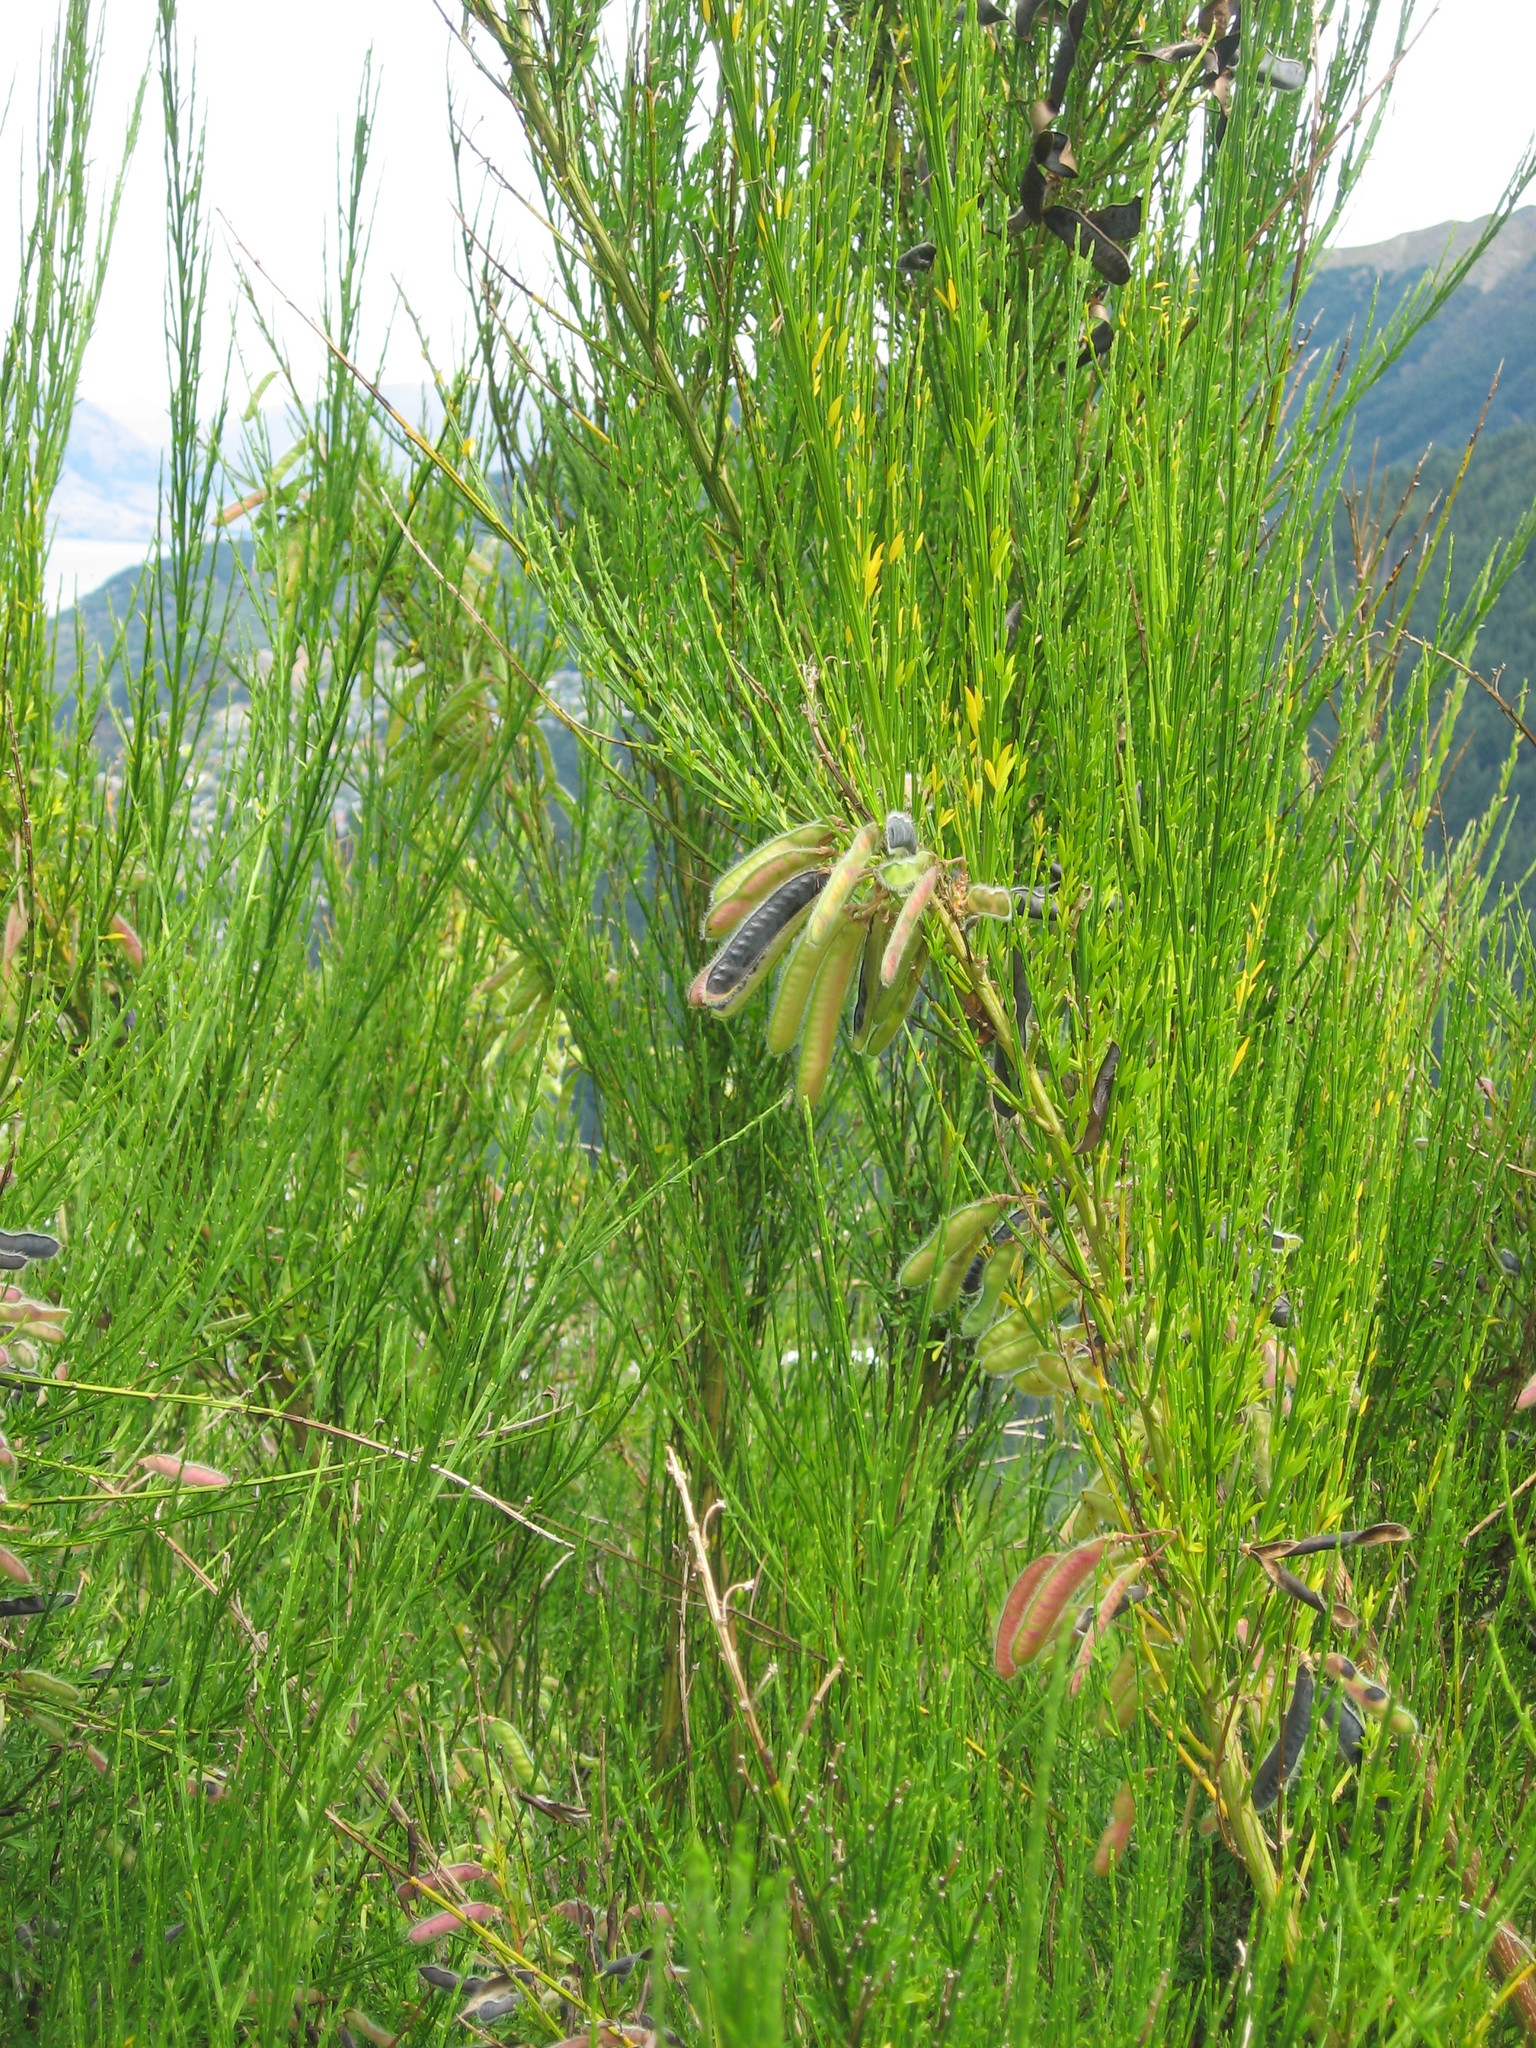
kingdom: Plantae
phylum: Tracheophyta
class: Magnoliopsida
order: Fabales
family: Fabaceae
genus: Cytisus
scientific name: Cytisus scoparius
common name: Scotch broom
